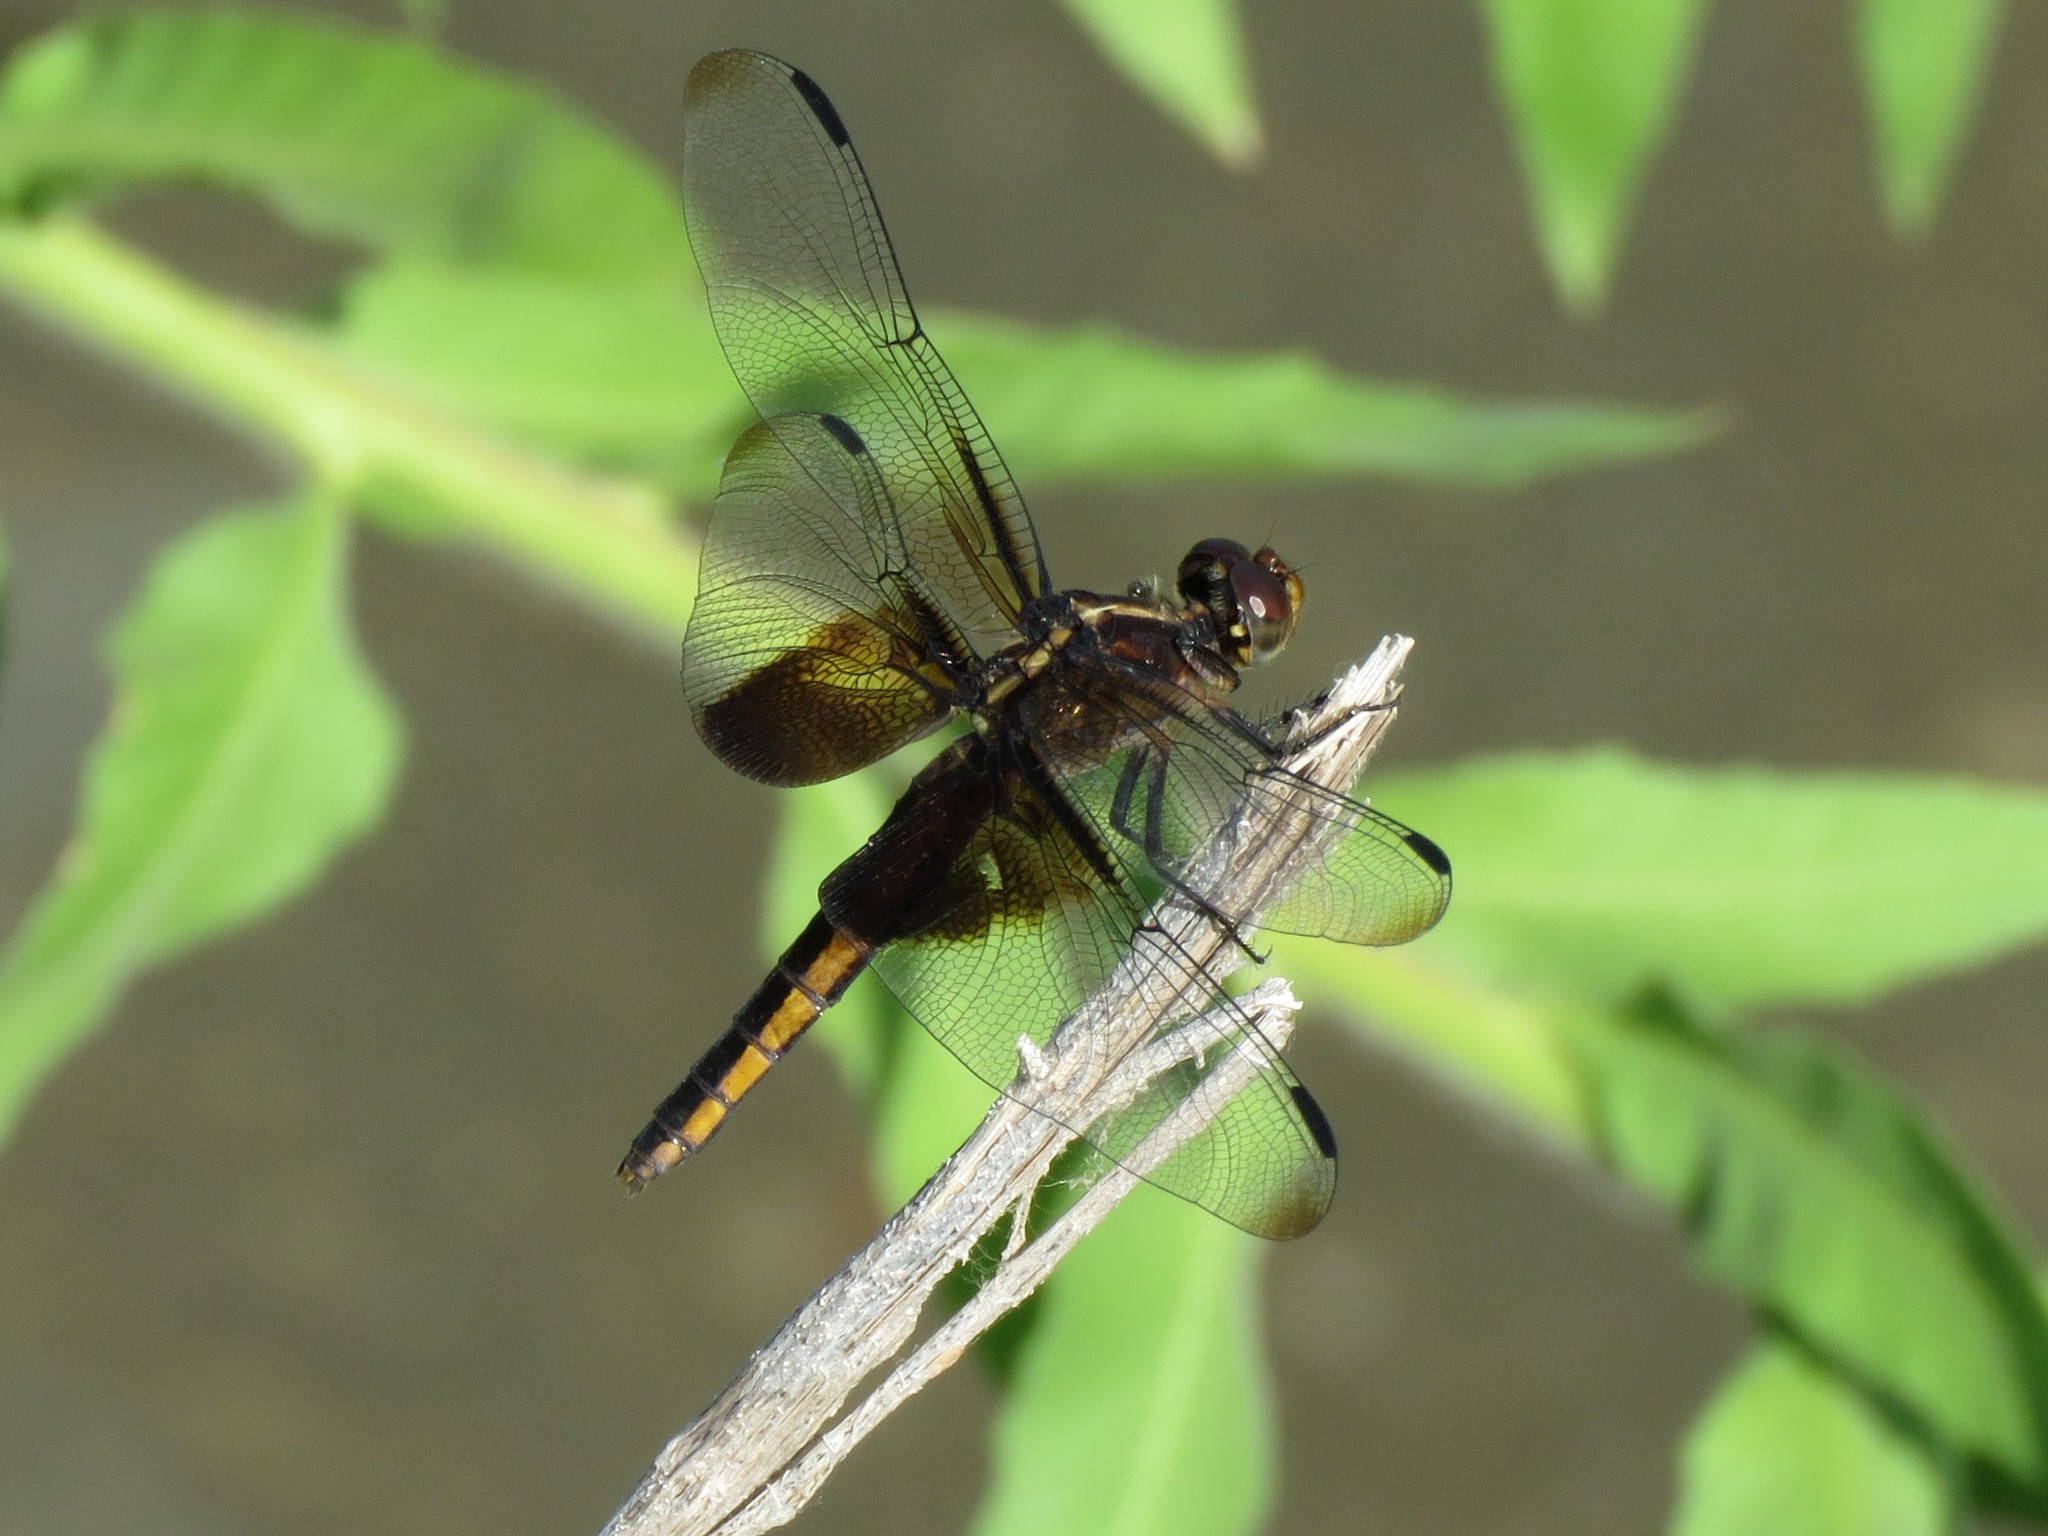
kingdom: Animalia
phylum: Arthropoda
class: Insecta
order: Odonata
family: Libellulidae
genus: Libellula
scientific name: Libellula luctuosa
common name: Widow skimmer
